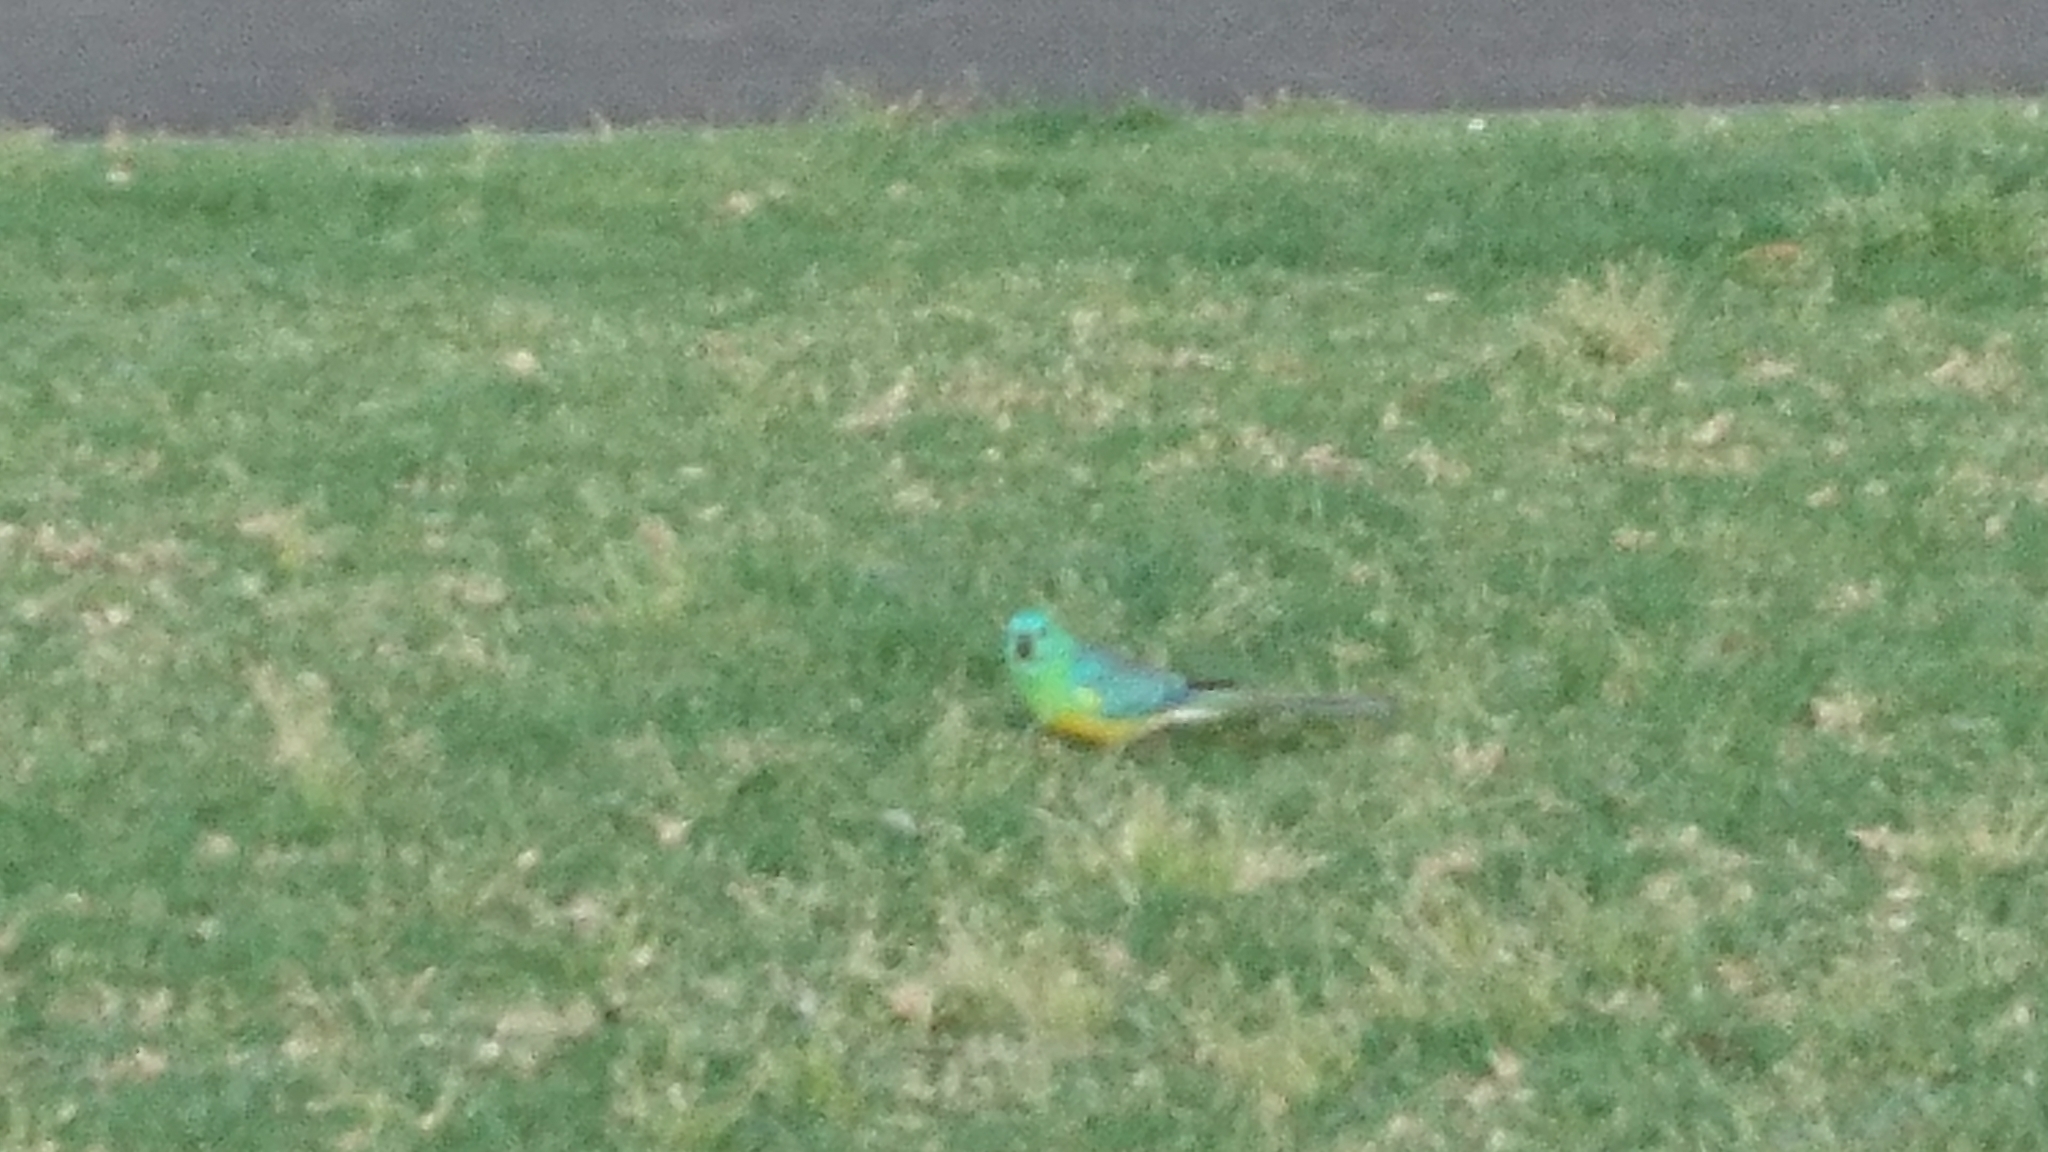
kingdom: Animalia
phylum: Chordata
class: Aves
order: Psittaciformes
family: Psittacidae
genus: Psephotus
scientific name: Psephotus haematonotus
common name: Red-rumped parrot
